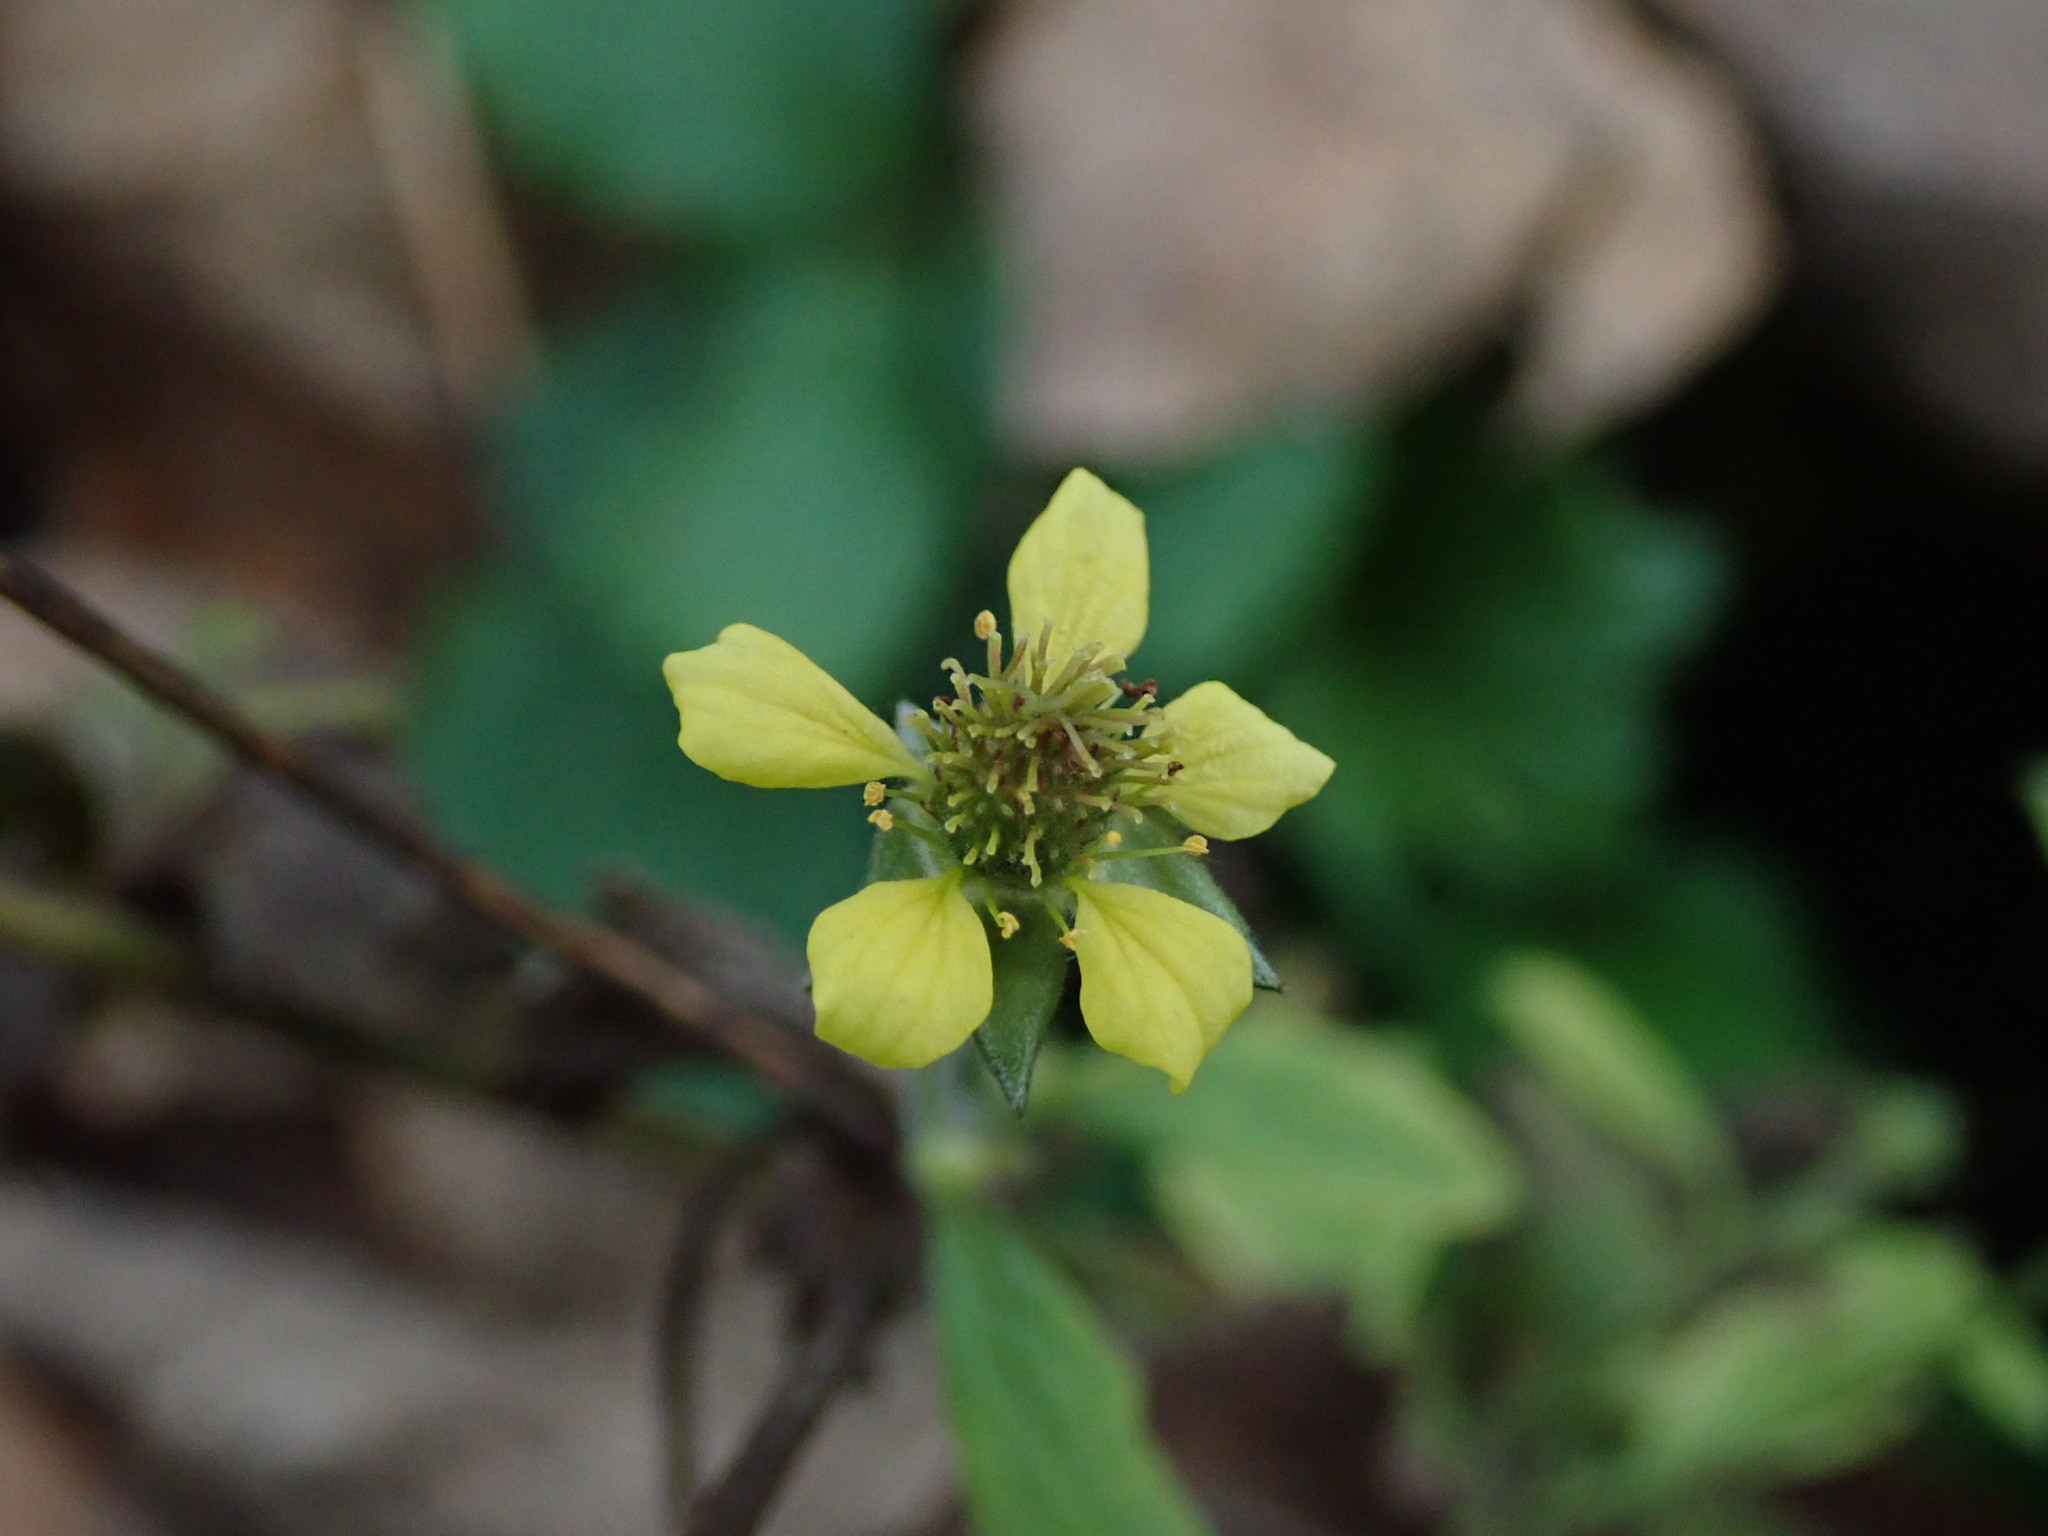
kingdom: Plantae
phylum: Tracheophyta
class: Magnoliopsida
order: Rosales
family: Rosaceae
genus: Geum
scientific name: Geum urbanum
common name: Wood avens
